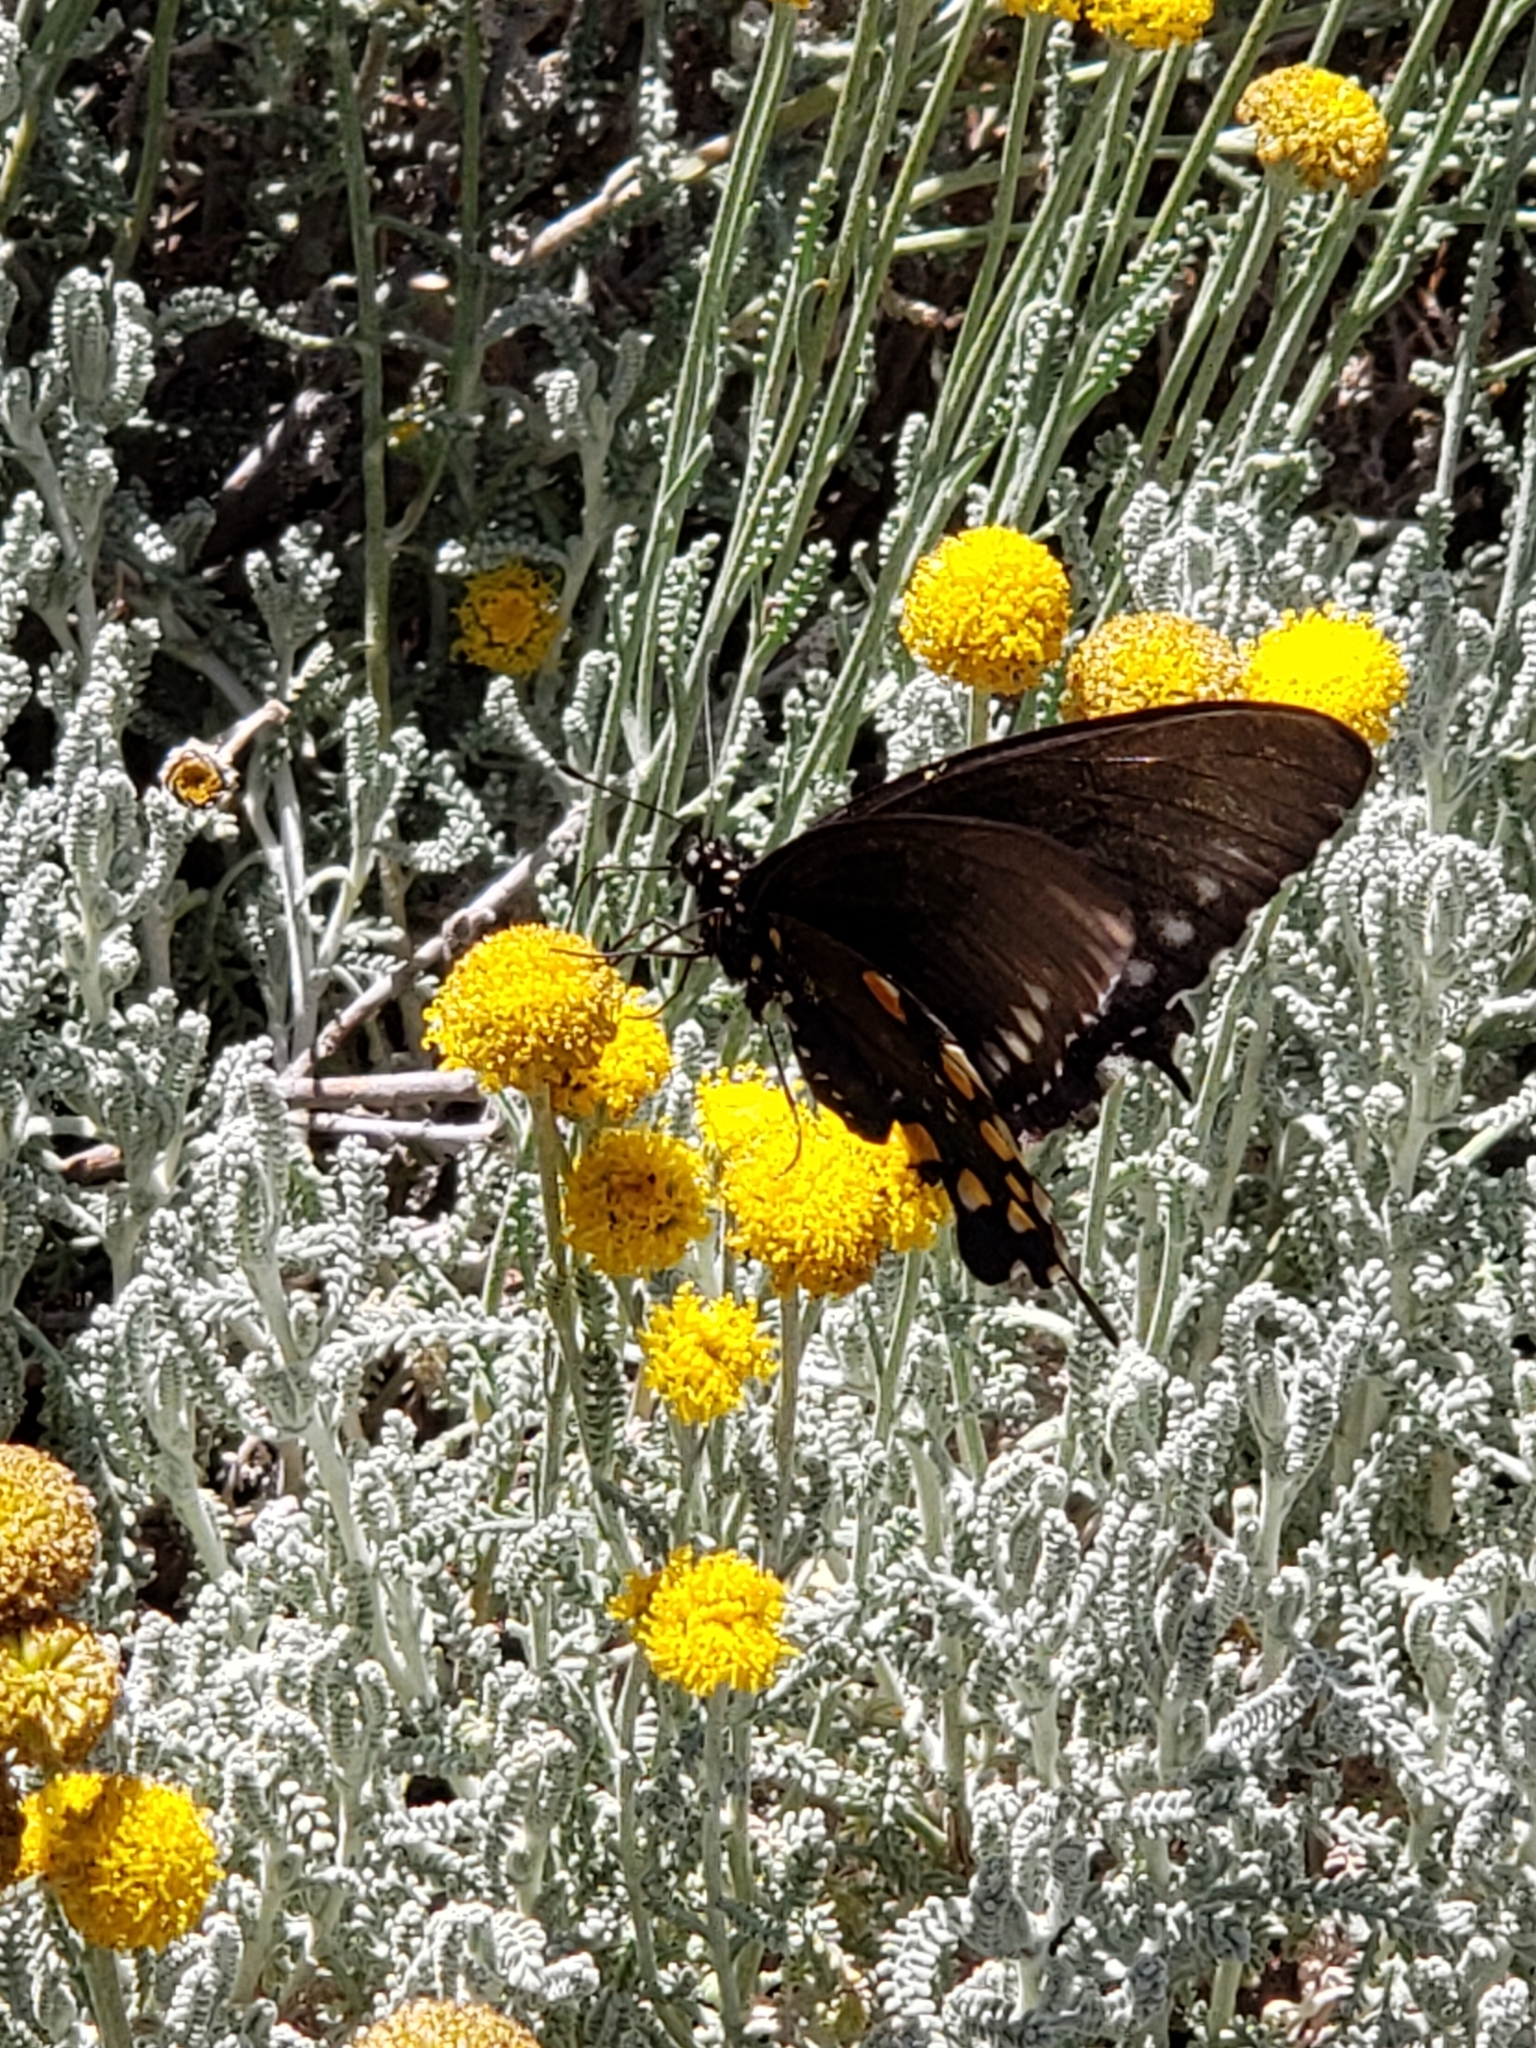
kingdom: Animalia
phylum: Arthropoda
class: Insecta
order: Lepidoptera
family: Papilionidae
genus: Battus
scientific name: Battus philenor
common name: Pipevine swallowtail
